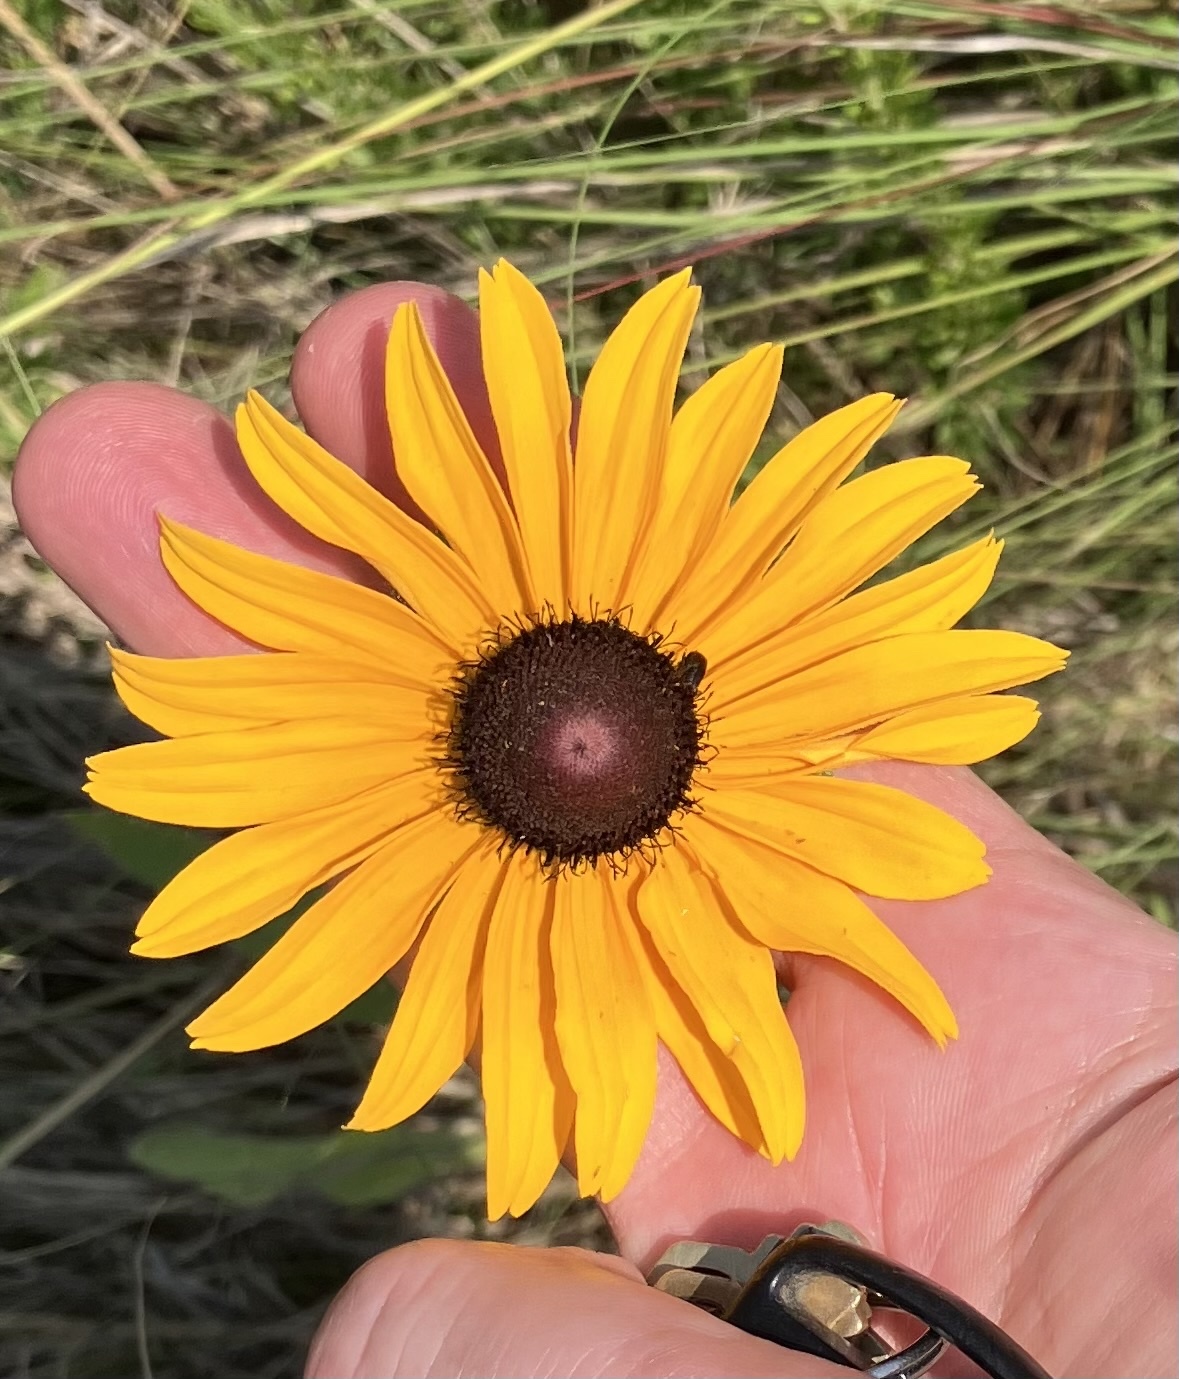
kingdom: Plantae
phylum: Tracheophyta
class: Magnoliopsida
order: Asterales
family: Asteraceae
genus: Rudbeckia
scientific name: Rudbeckia hirta
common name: Black-eyed-susan
